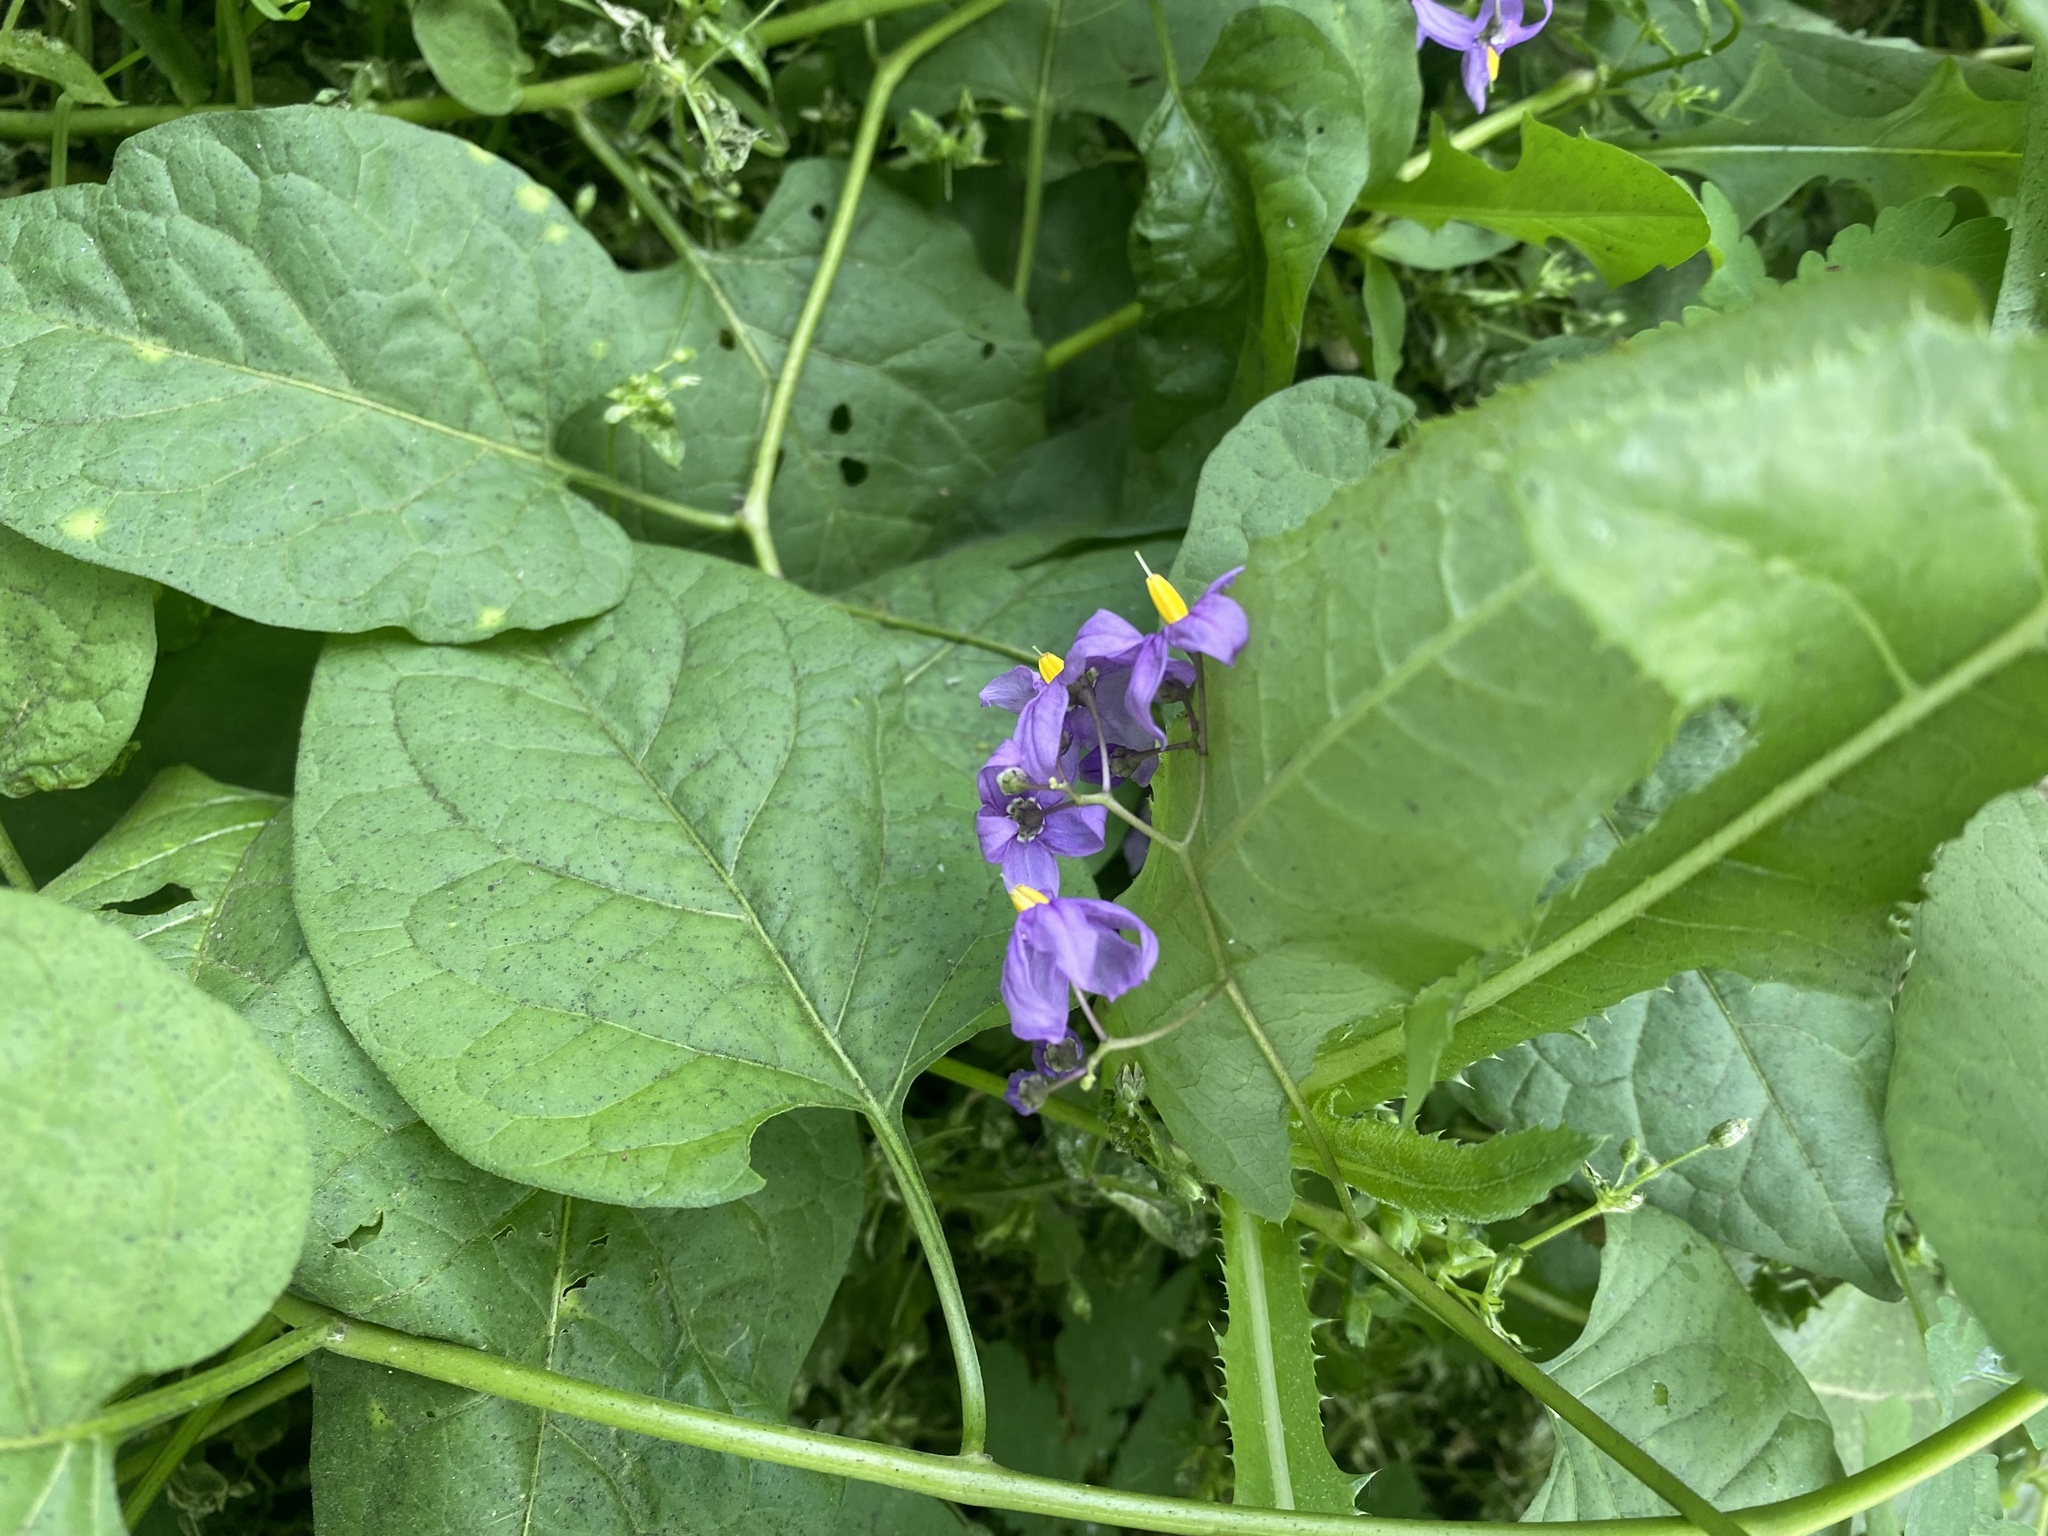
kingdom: Plantae
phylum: Tracheophyta
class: Magnoliopsida
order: Solanales
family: Solanaceae
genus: Solanum
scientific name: Solanum dulcamara
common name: Climbing nightshade
